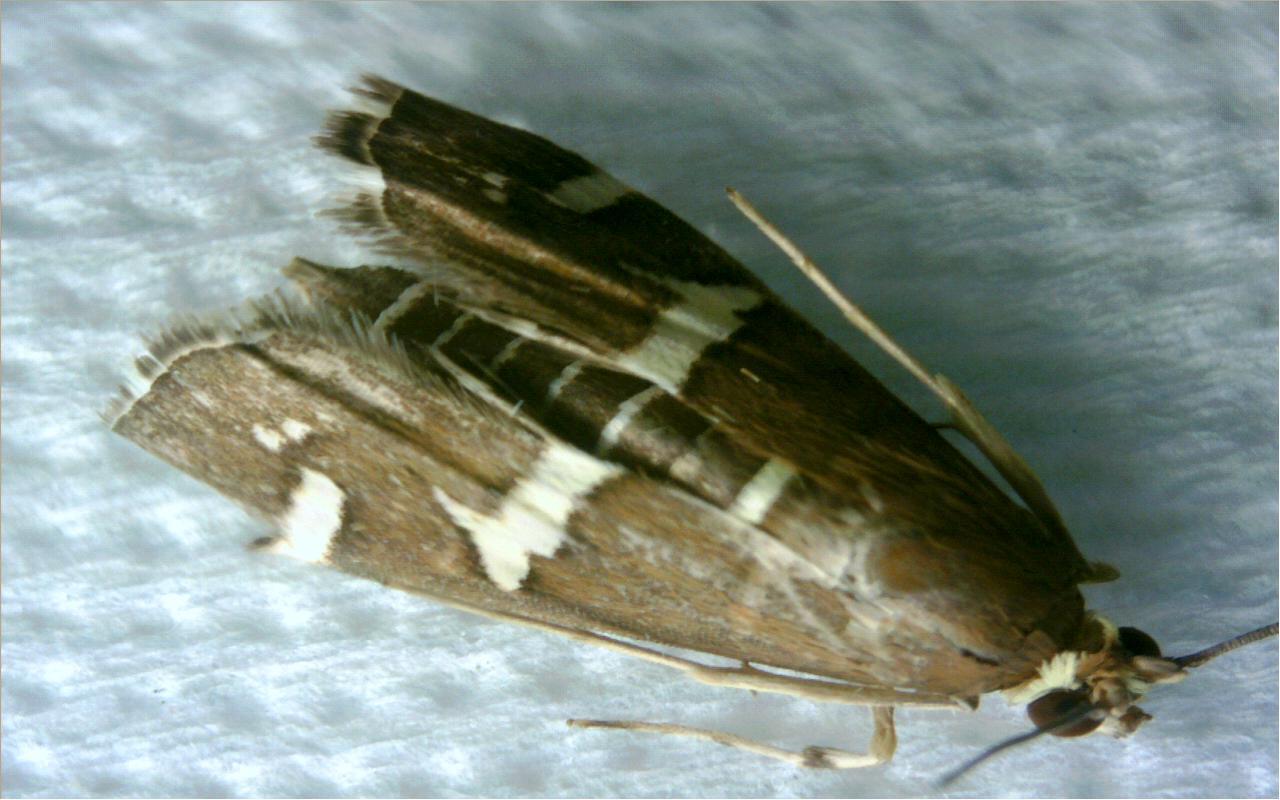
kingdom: Animalia
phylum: Arthropoda
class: Insecta
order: Lepidoptera
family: Crambidae
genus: Spoladea
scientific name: Spoladea recurvalis
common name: Beet webworm moth
